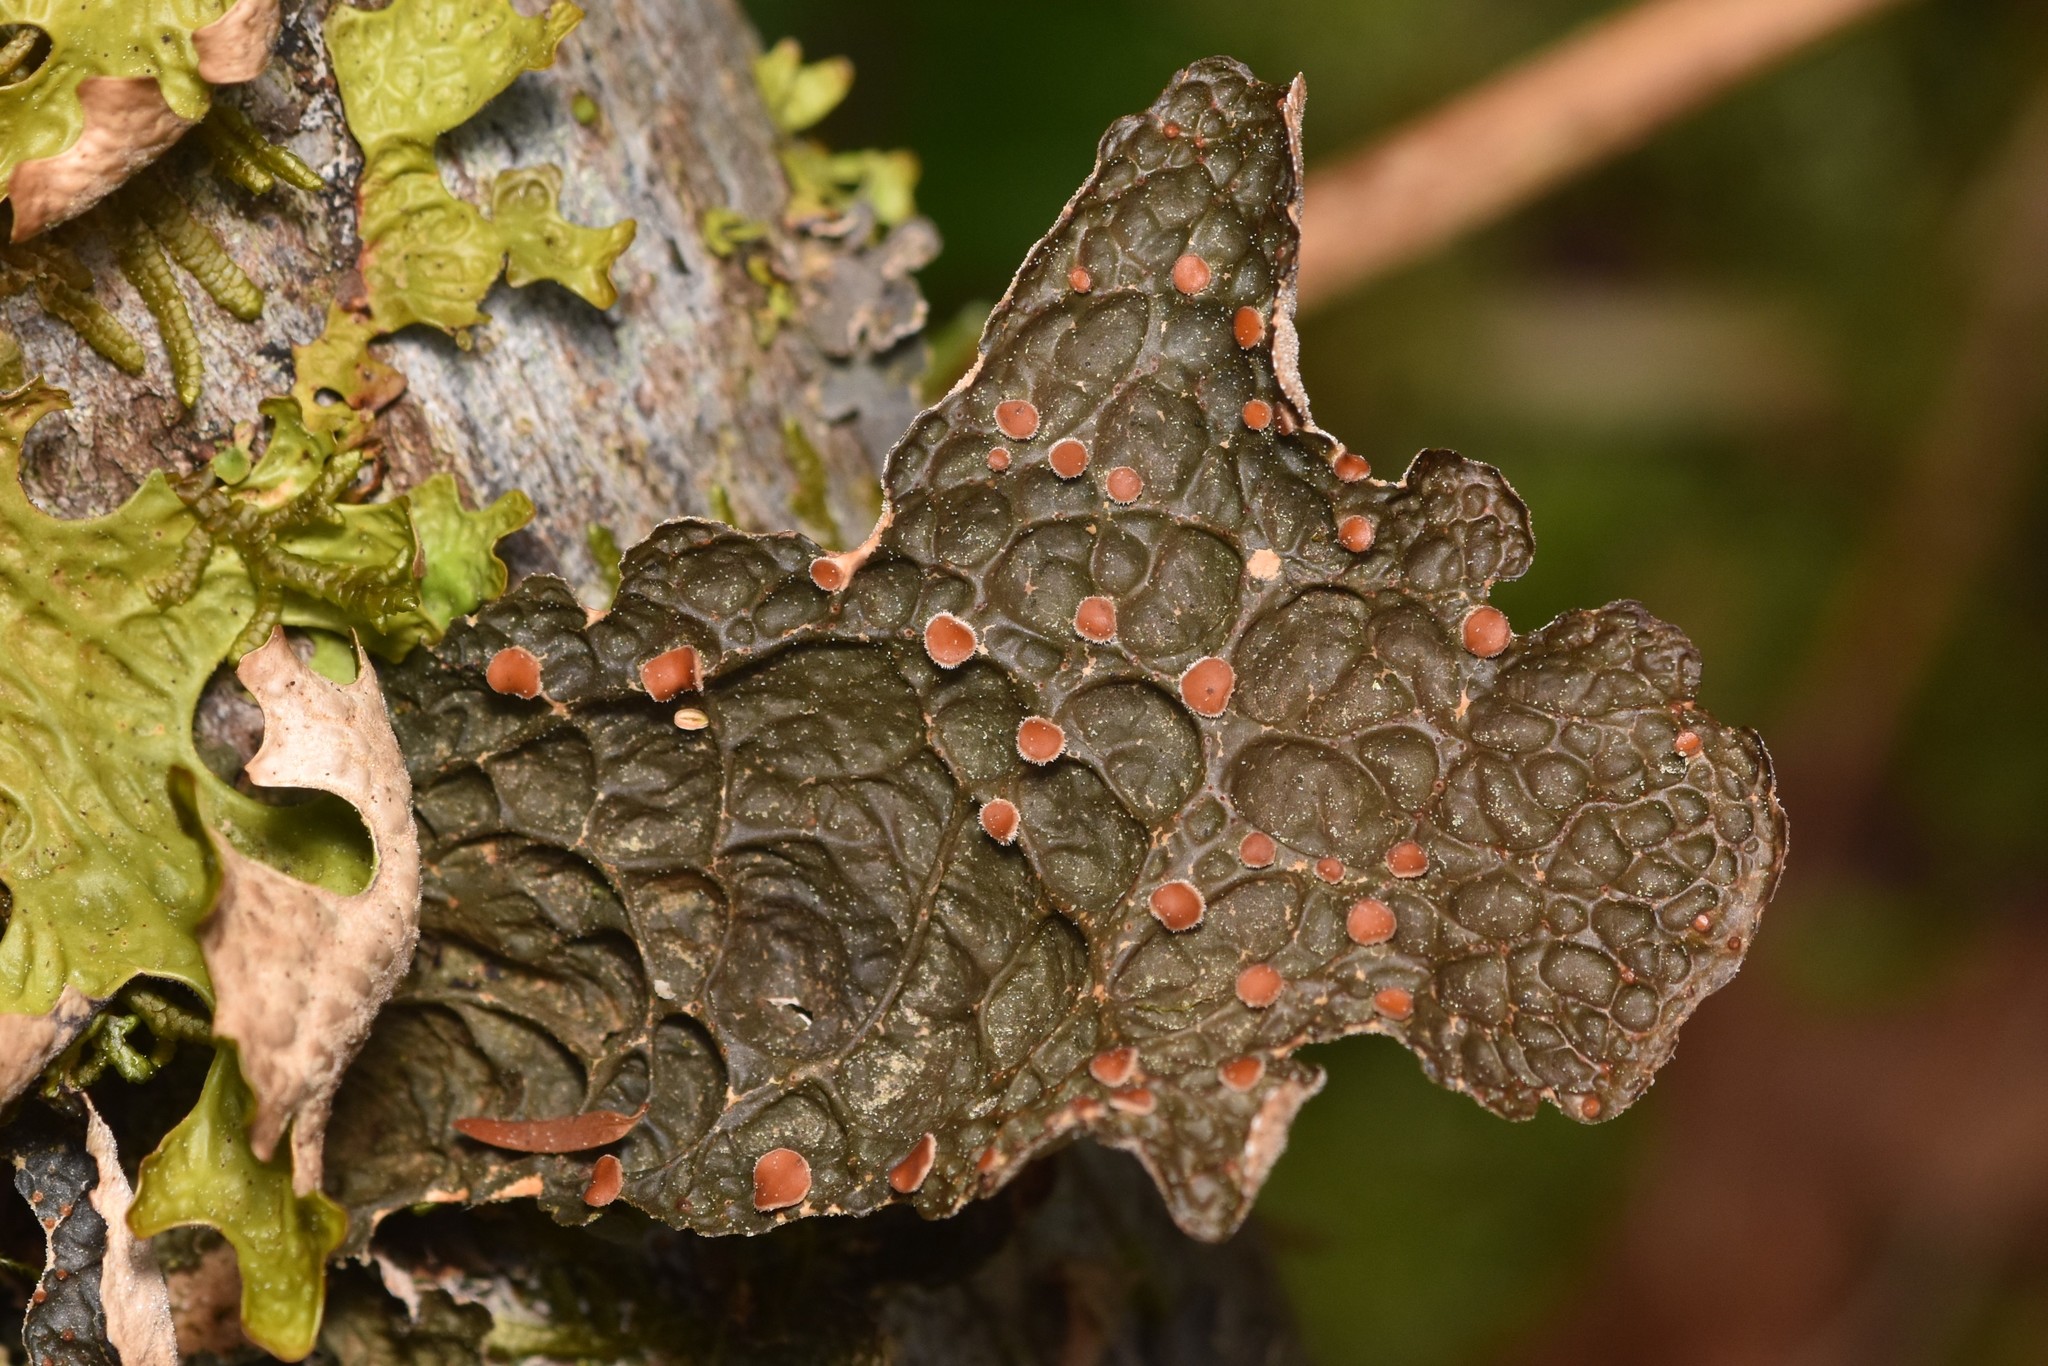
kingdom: Fungi
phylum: Ascomycota
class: Lecanoromycetes
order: Peltigerales
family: Lobariaceae
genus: Lobaria
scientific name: Lobaria anthraspis
